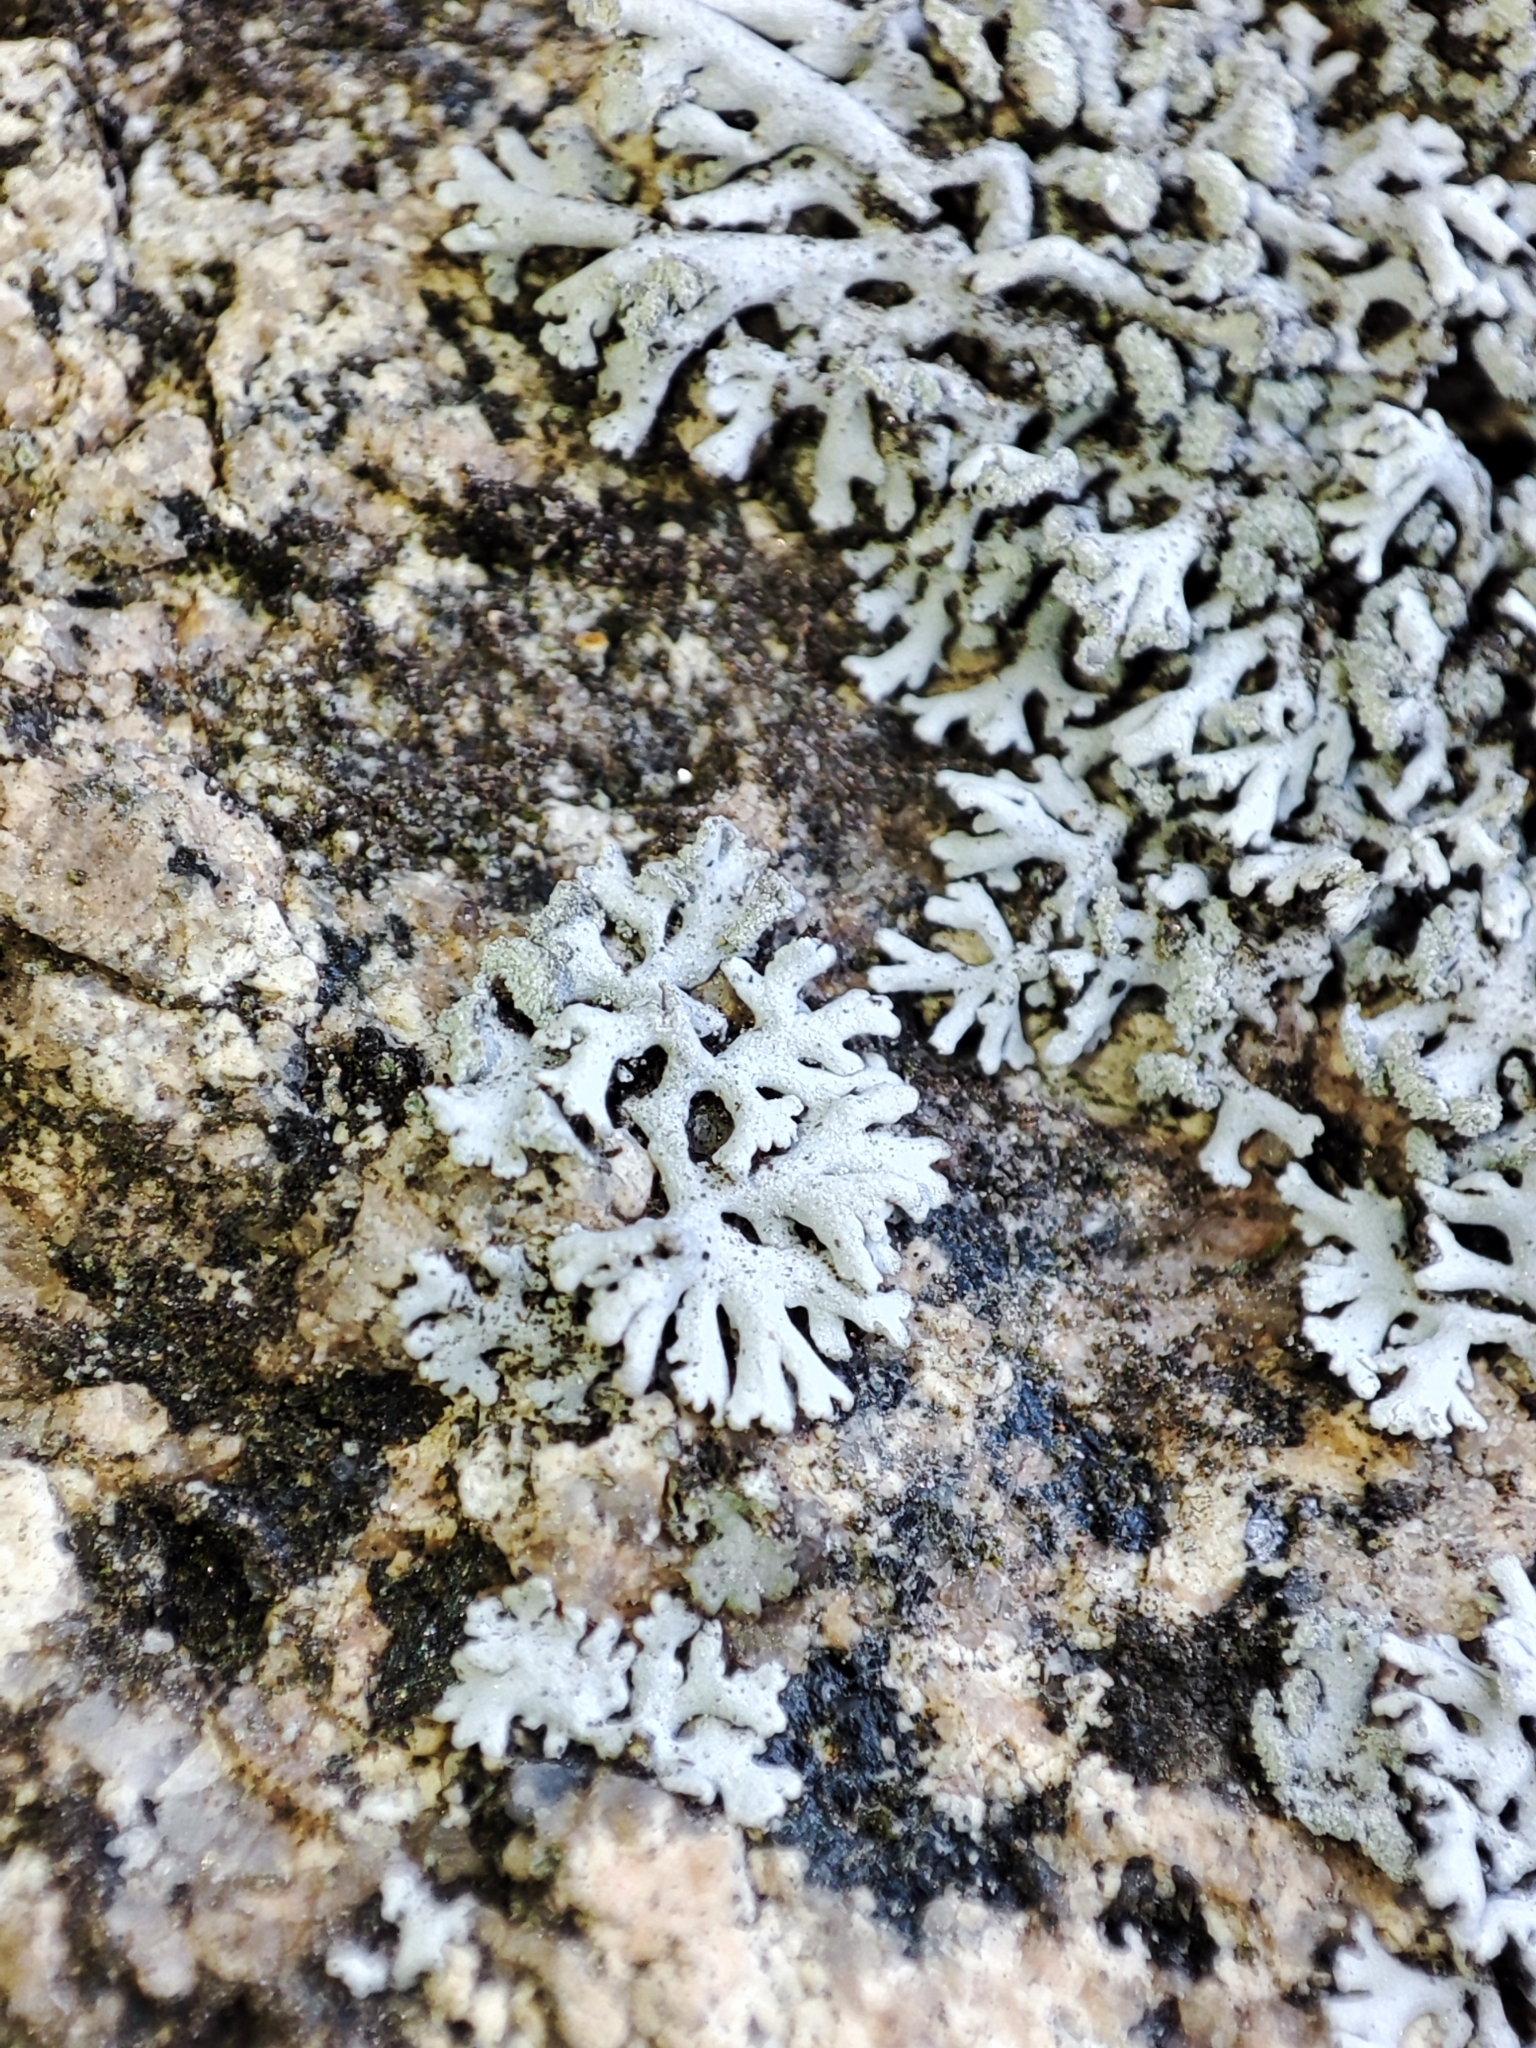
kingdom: Fungi
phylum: Ascomycota
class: Lecanoromycetes
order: Caliciales
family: Physciaceae
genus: Physcia
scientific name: Physcia dimidiata
